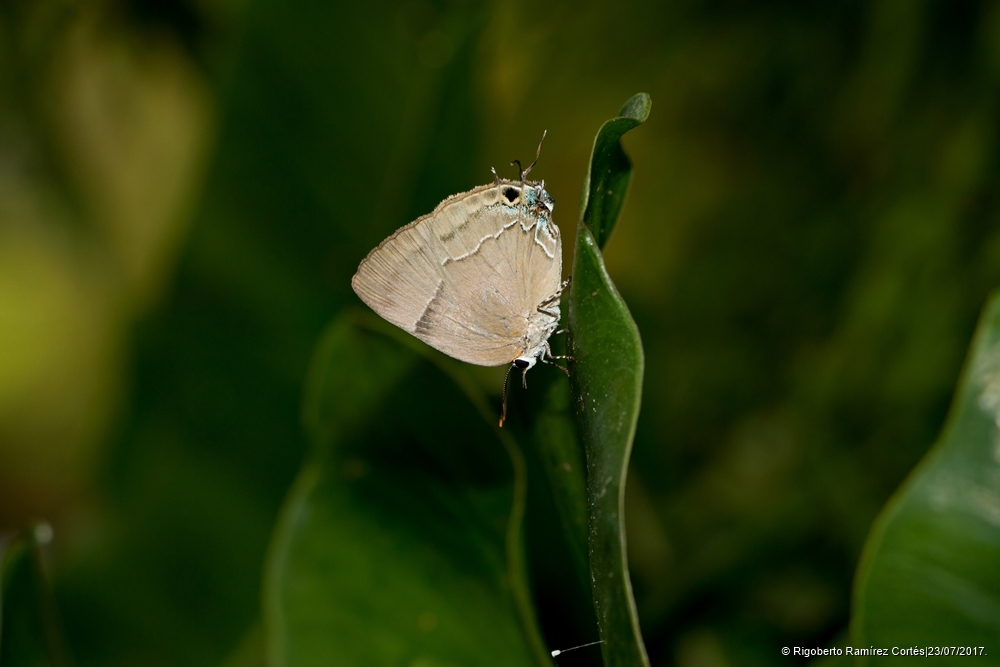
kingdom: Animalia
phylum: Arthropoda
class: Insecta
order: Lepidoptera
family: Lycaenidae
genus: Panthiades
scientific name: Panthiades bitias
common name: Bitias hairstreak
